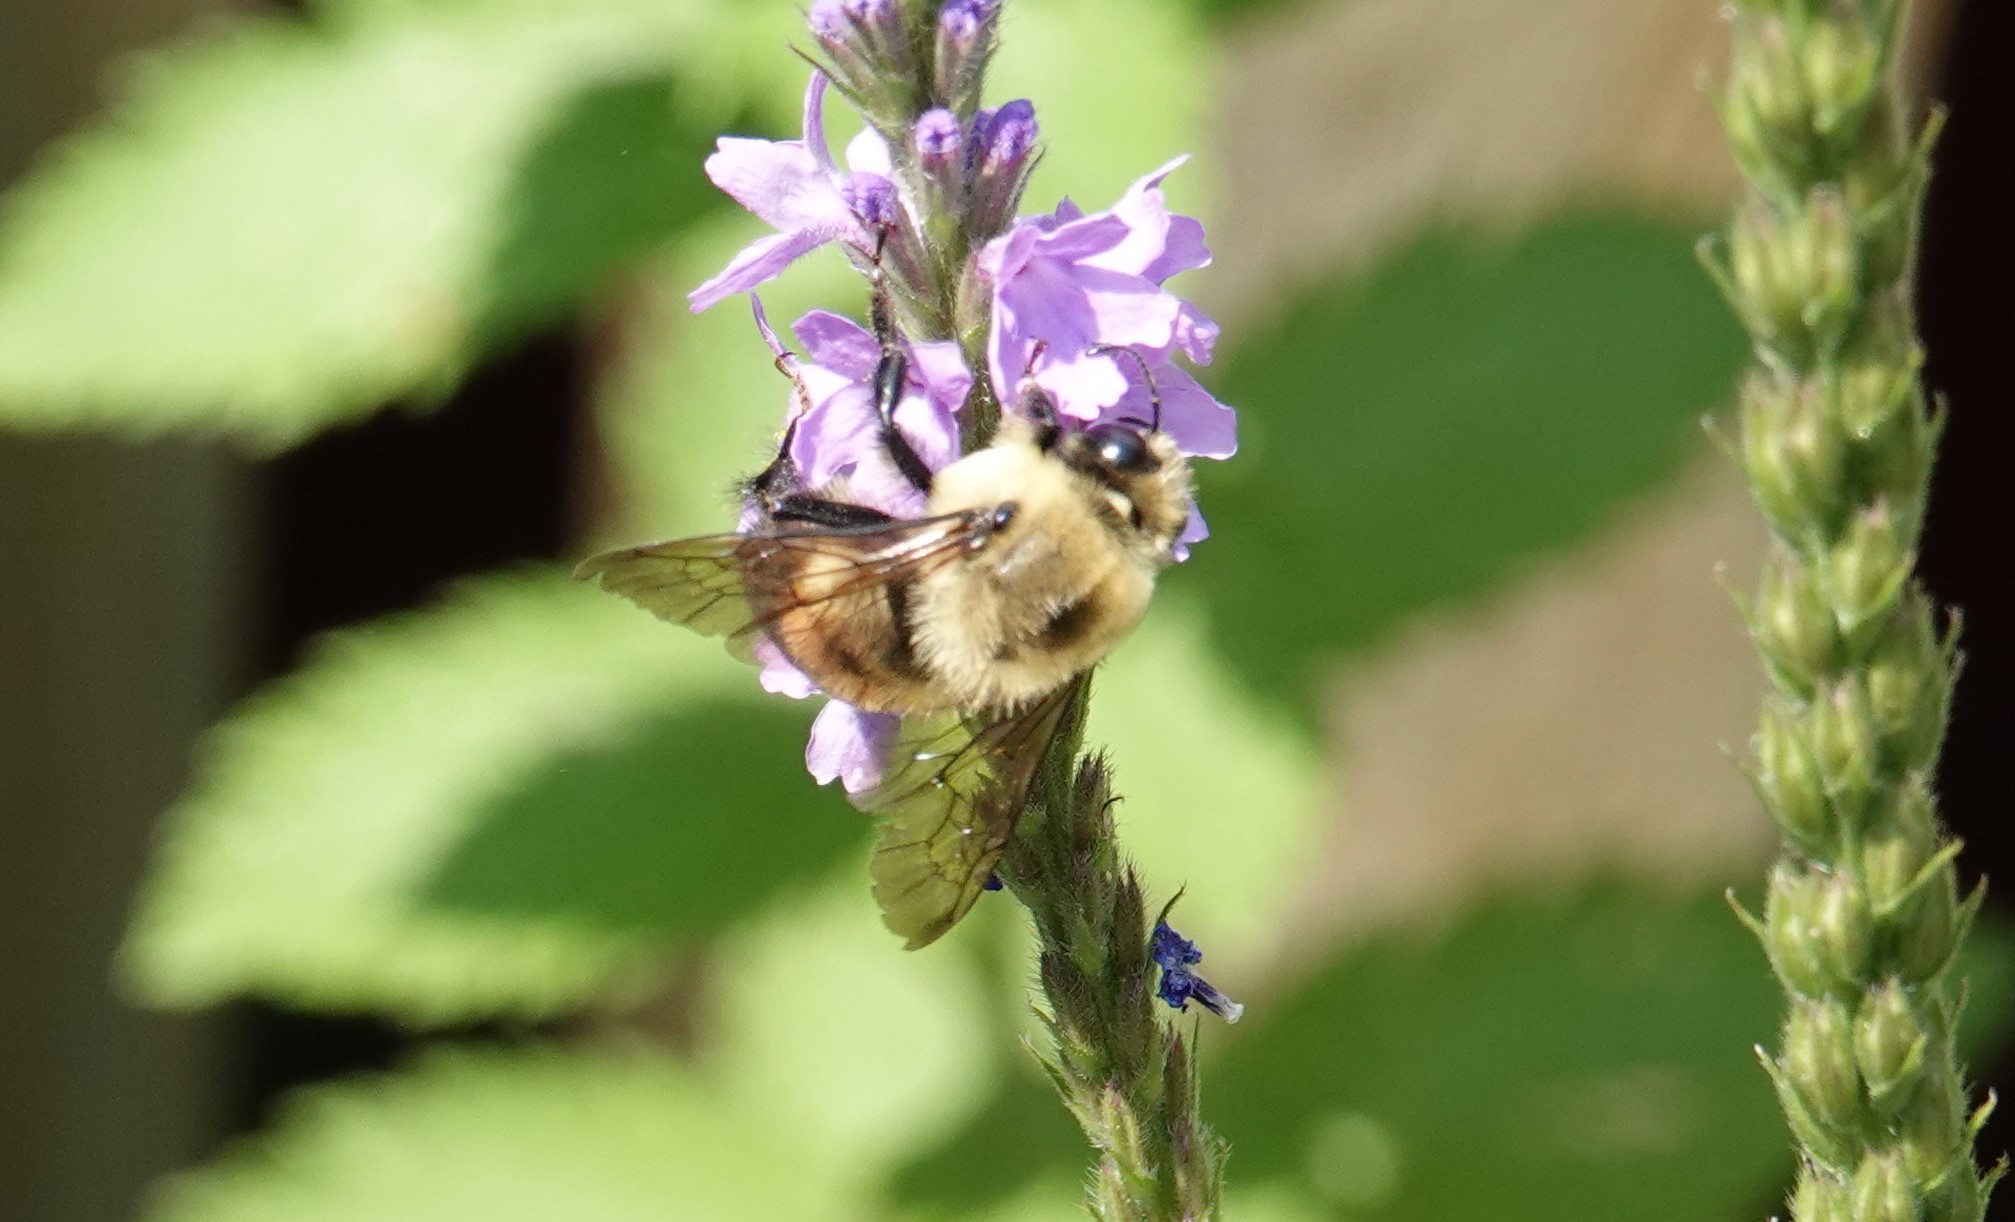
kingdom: Animalia
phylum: Arthropoda
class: Insecta
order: Hymenoptera
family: Apidae
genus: Bombus
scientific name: Bombus griseocollis
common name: Brown-belted bumble bee
